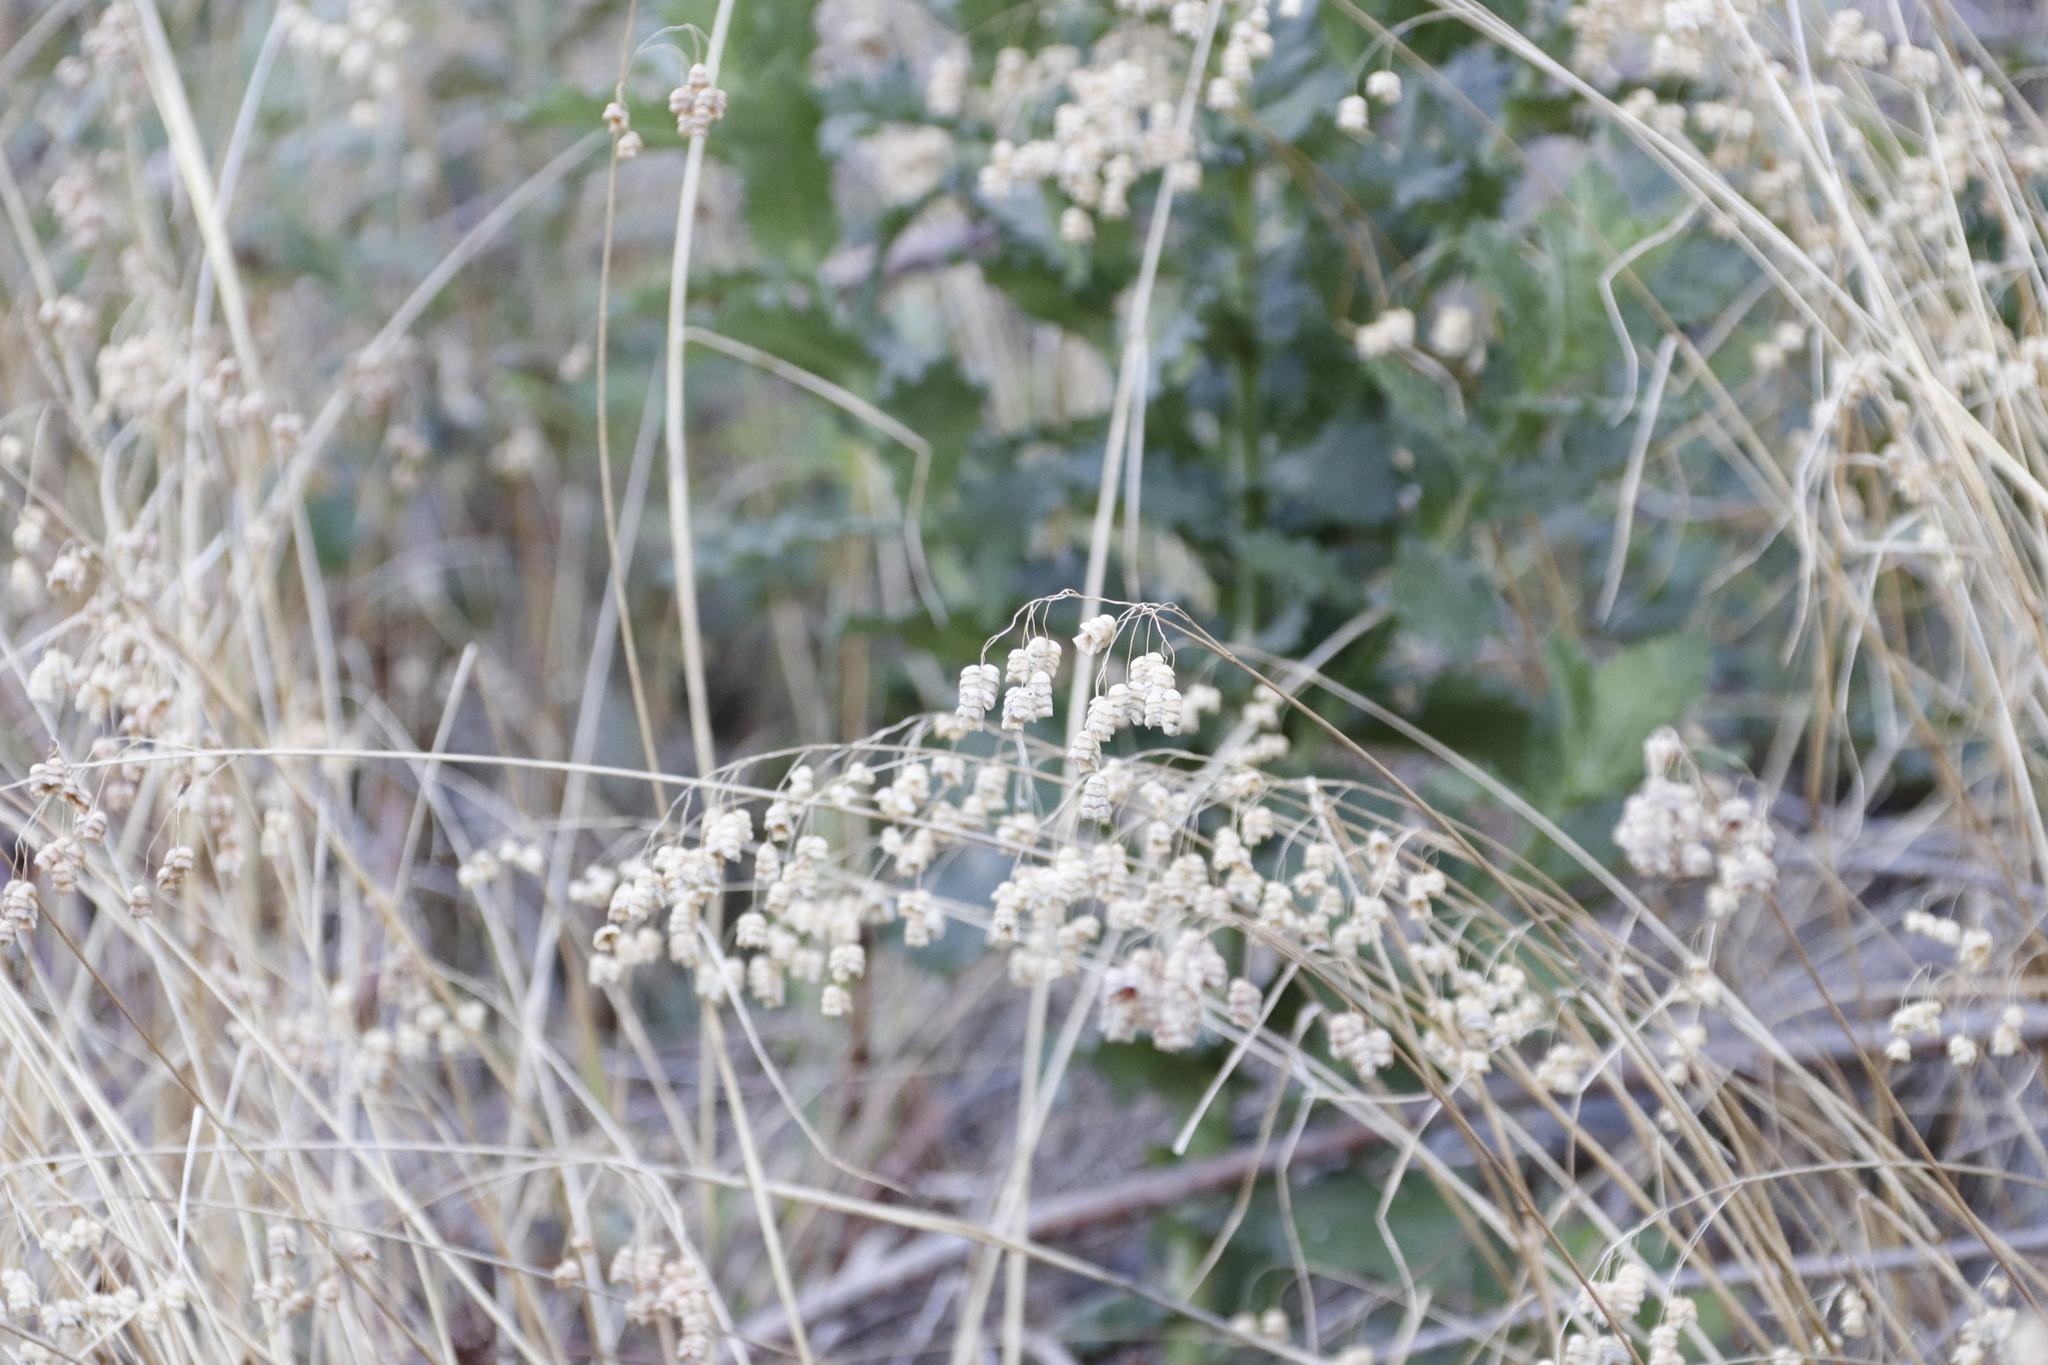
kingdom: Plantae
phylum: Tracheophyta
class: Liliopsida
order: Poales
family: Poaceae
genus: Briza
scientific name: Briza maxima
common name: Big quakinggrass
